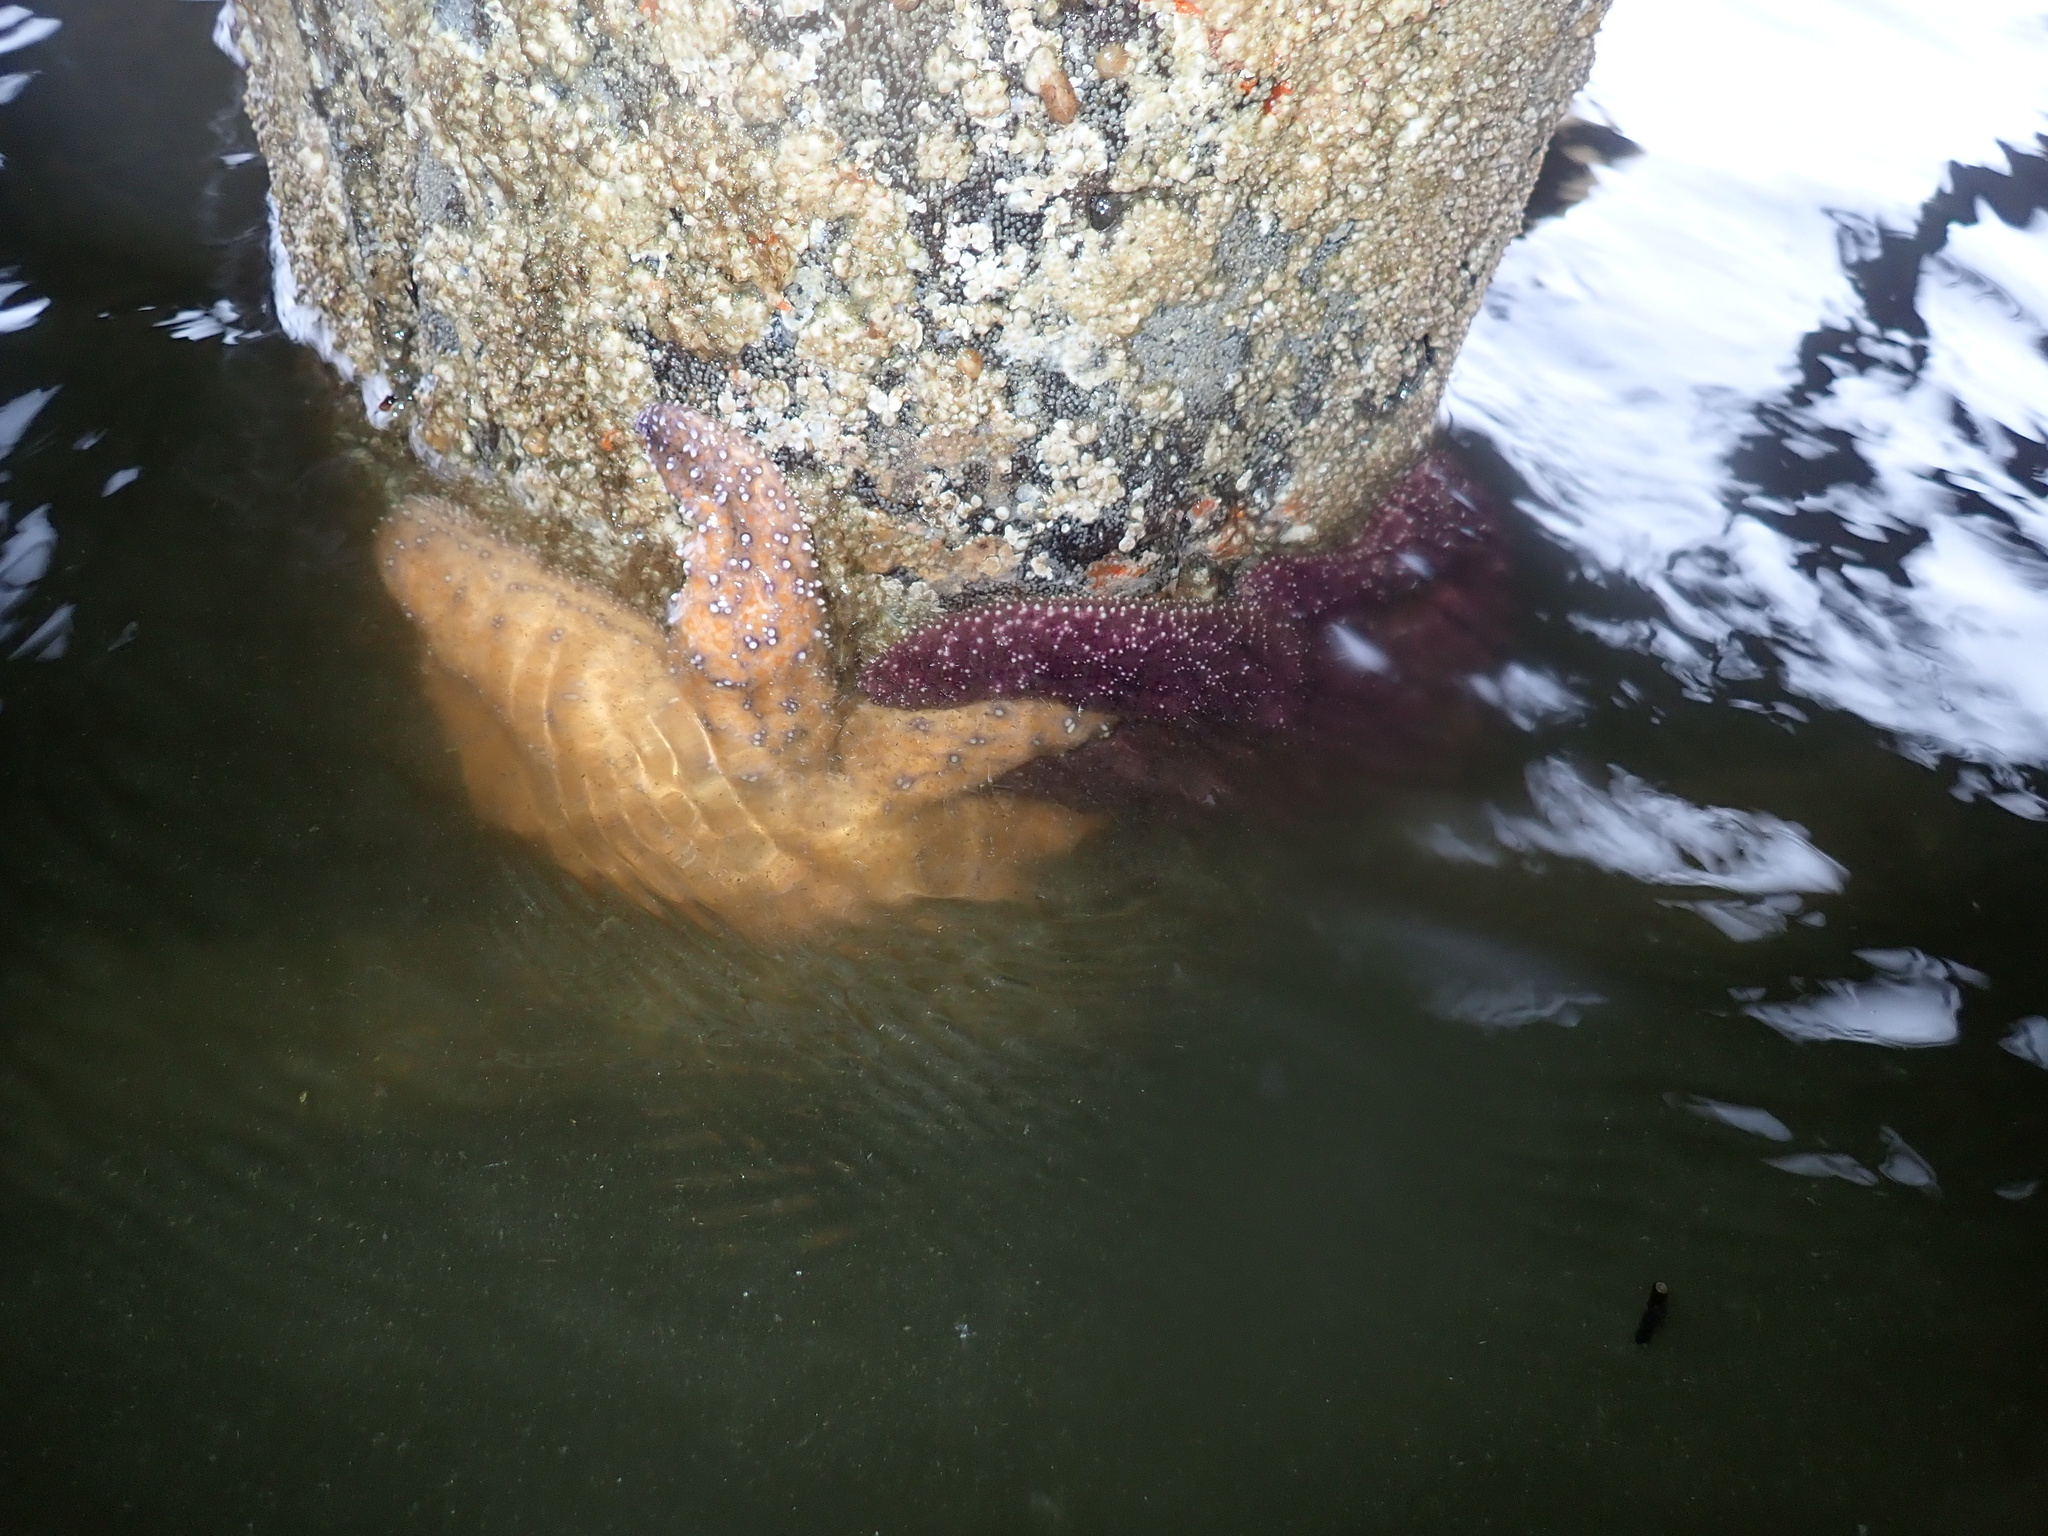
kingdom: Animalia
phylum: Echinodermata
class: Asteroidea
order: Forcipulatida
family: Asteriidae
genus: Pisaster
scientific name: Pisaster ochraceus
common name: Ochre stars
